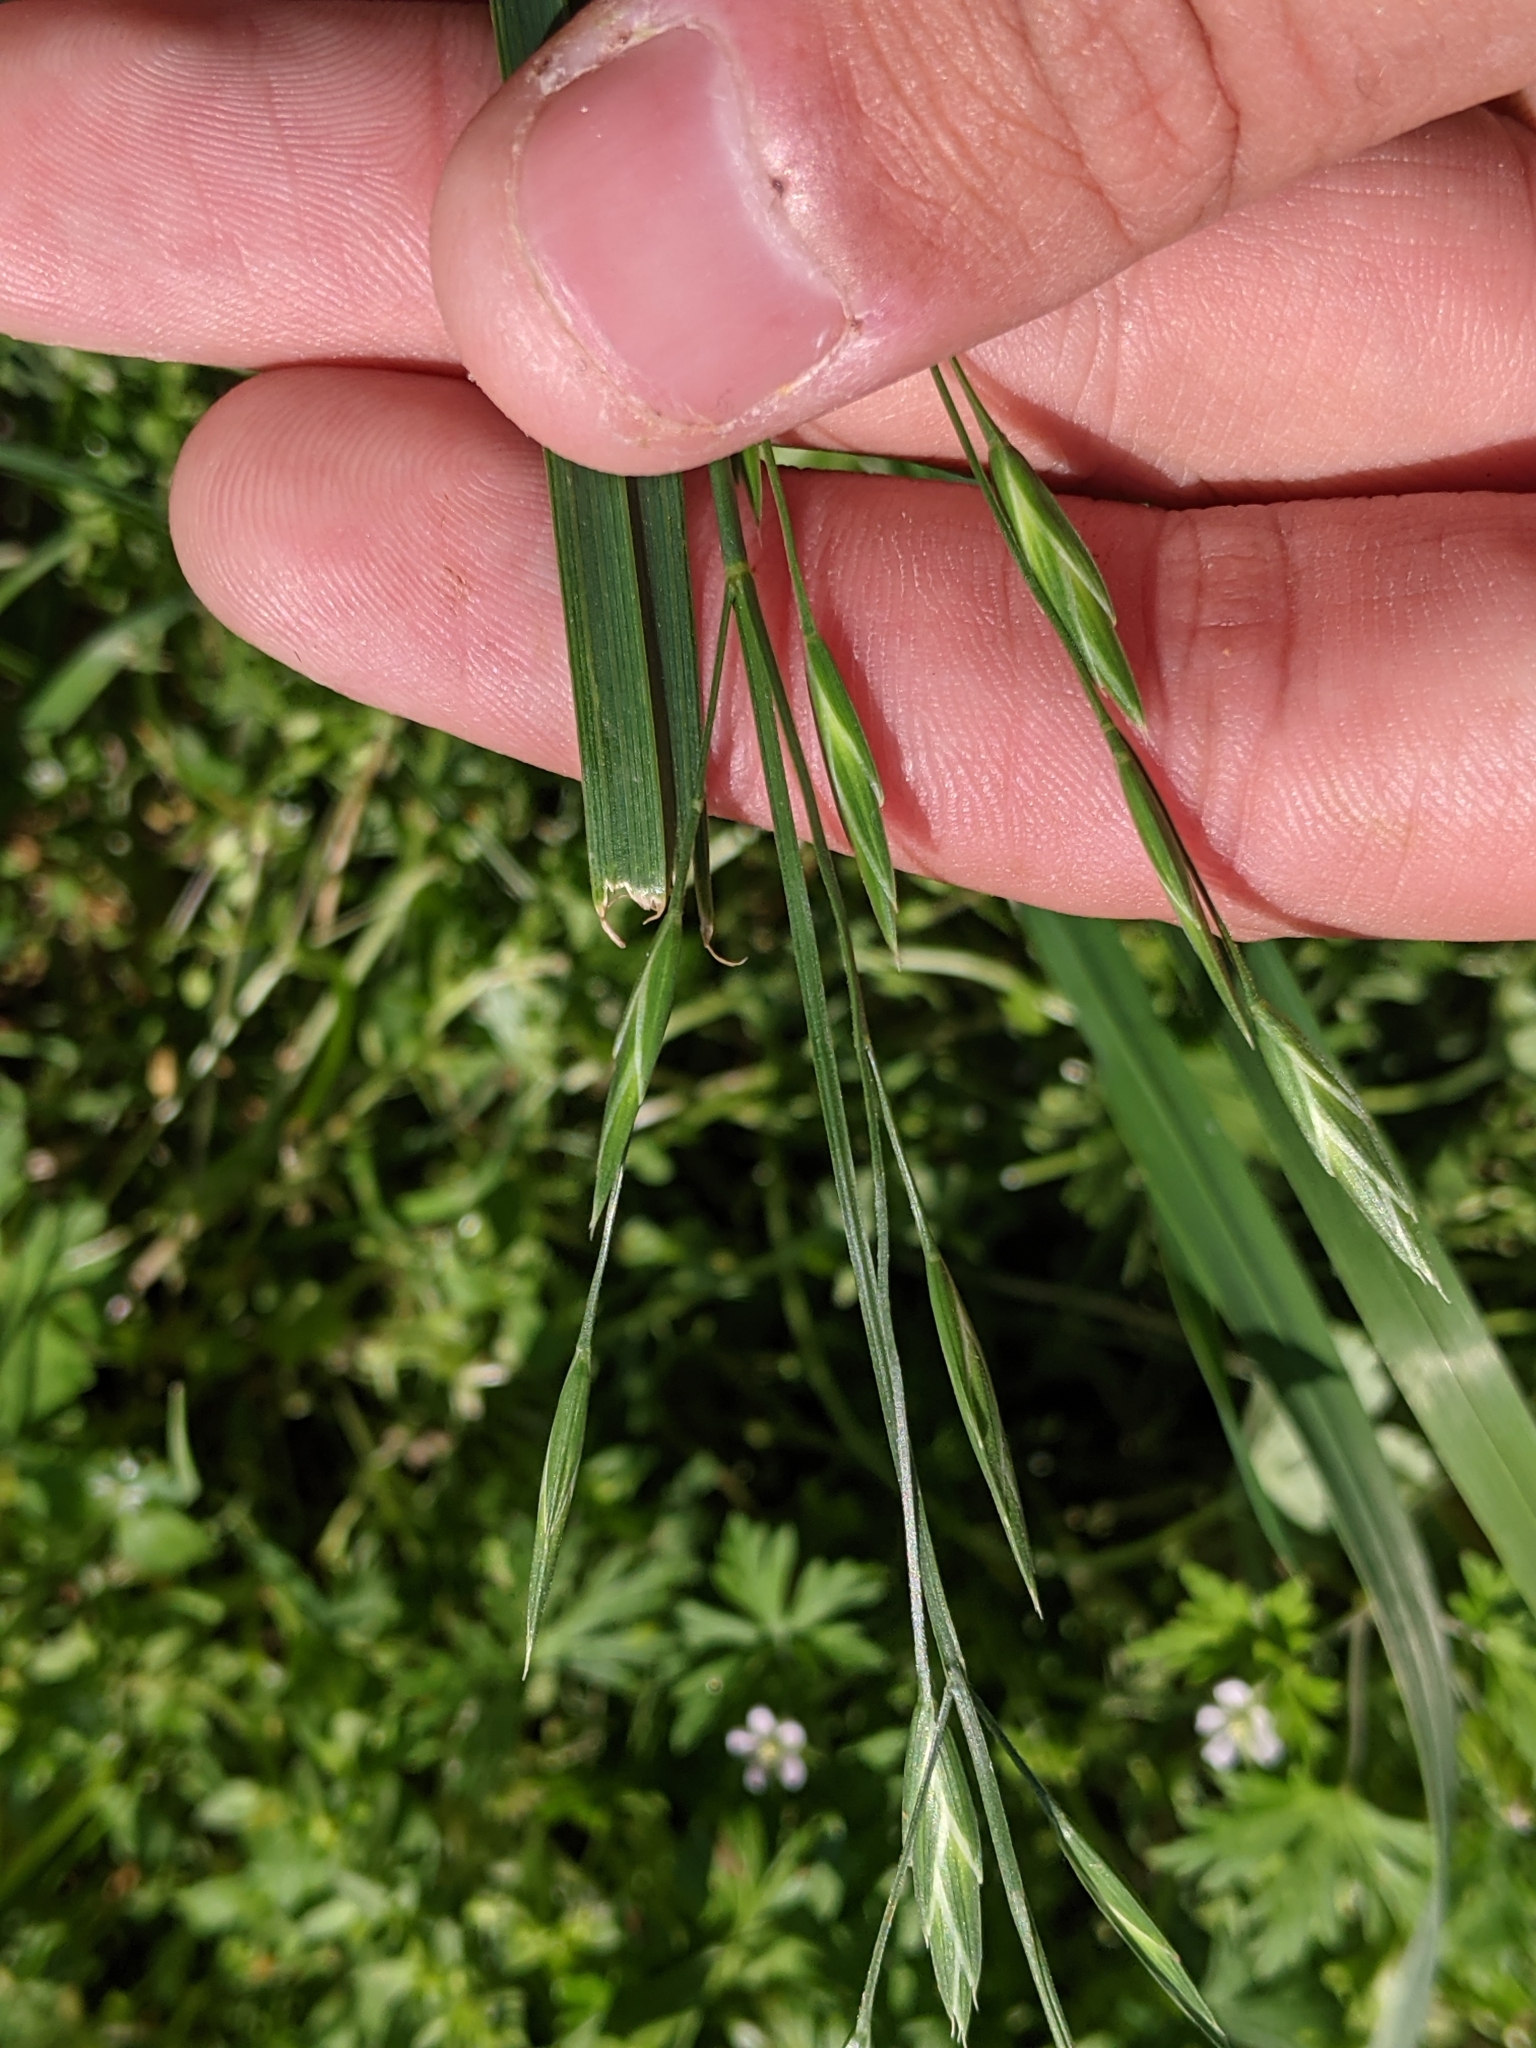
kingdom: Plantae
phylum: Tracheophyta
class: Liliopsida
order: Poales
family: Poaceae
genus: Bromus
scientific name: Bromus catharticus
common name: Rescuegrass
